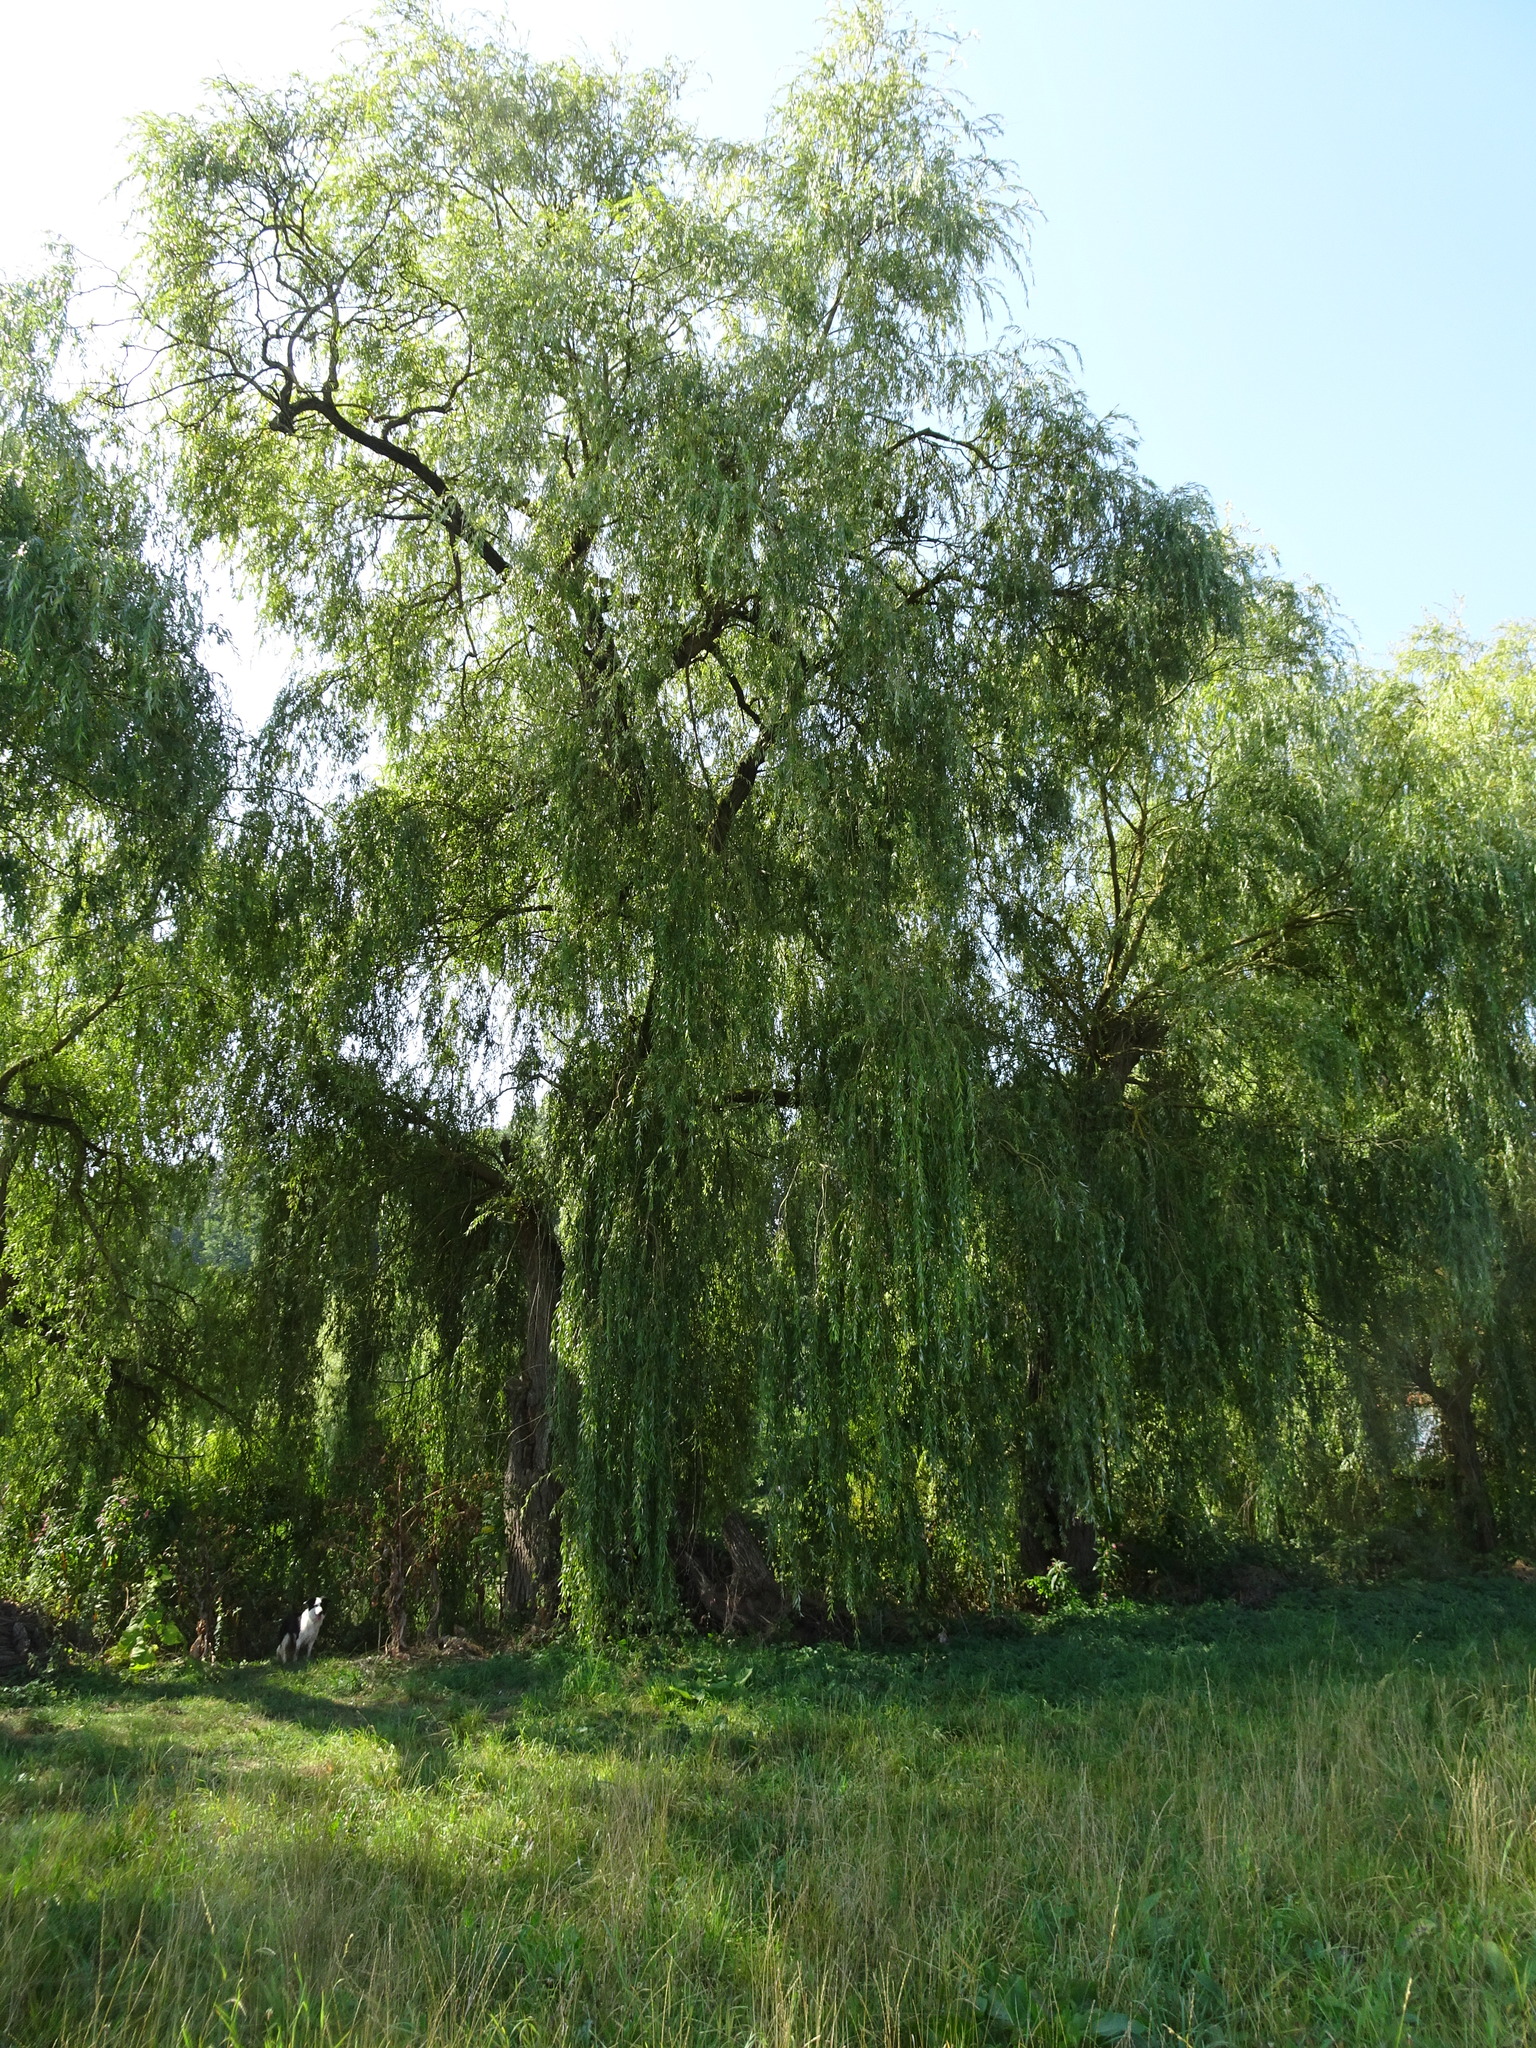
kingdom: Plantae
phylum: Tracheophyta
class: Magnoliopsida
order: Malpighiales
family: Salicaceae
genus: Salix
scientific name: Salix pendulina
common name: Wisconsin weeping willow
